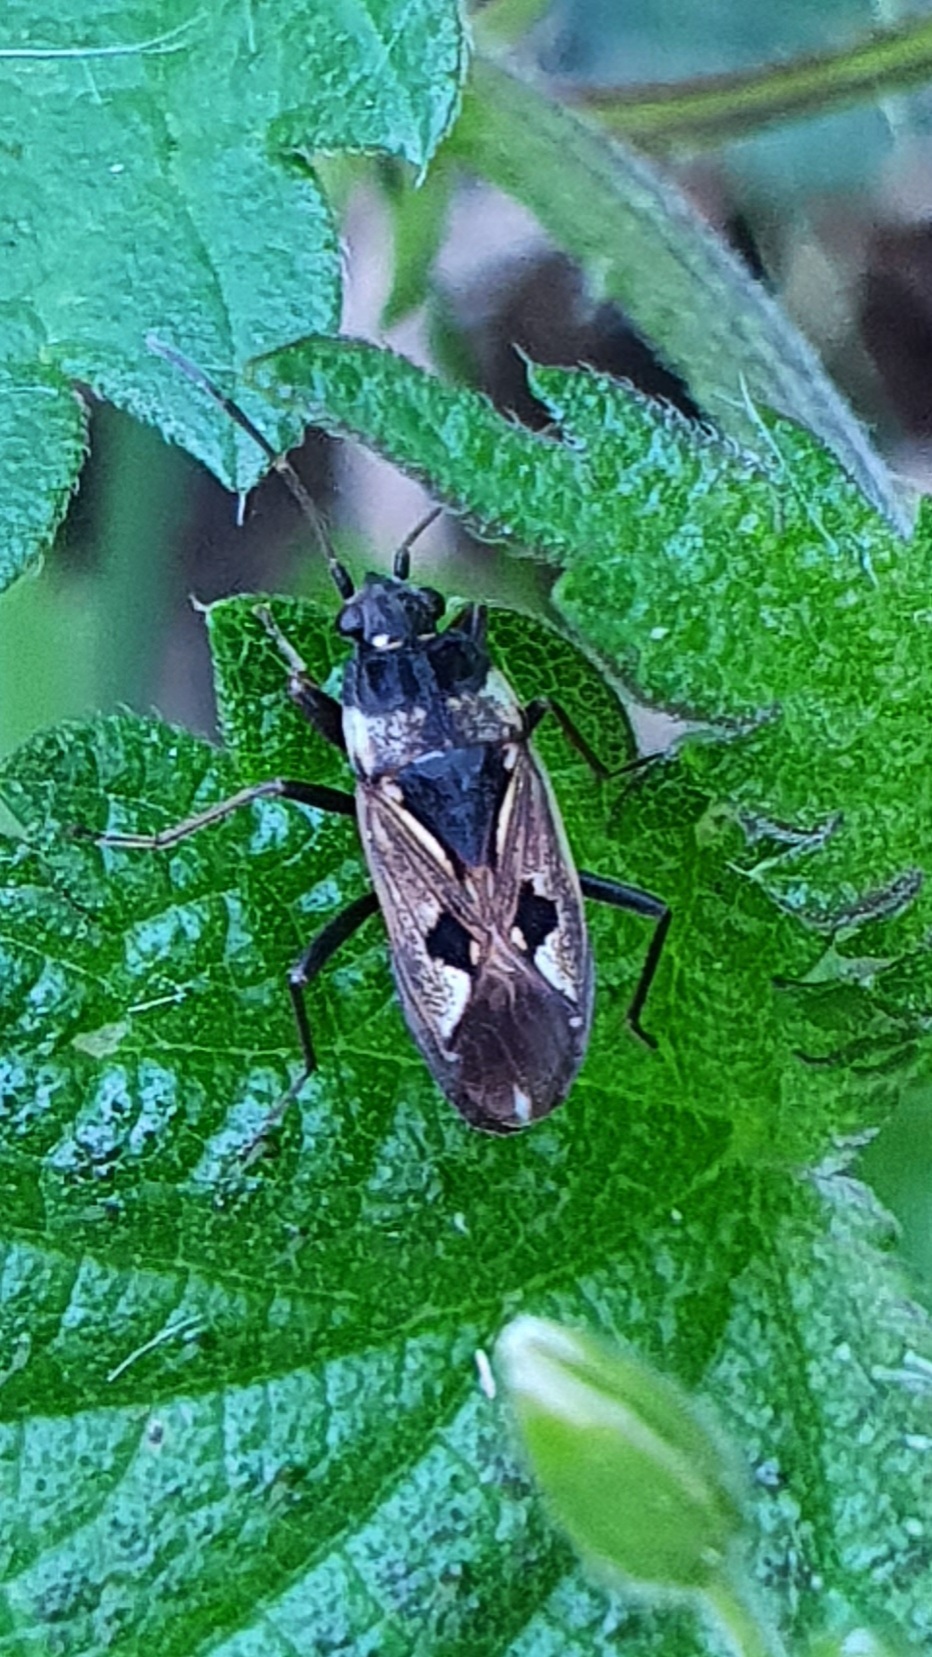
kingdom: Animalia
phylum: Arthropoda
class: Insecta
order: Hemiptera
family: Rhyparochromidae
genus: Rhyparochromus
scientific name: Rhyparochromus vulgaris
